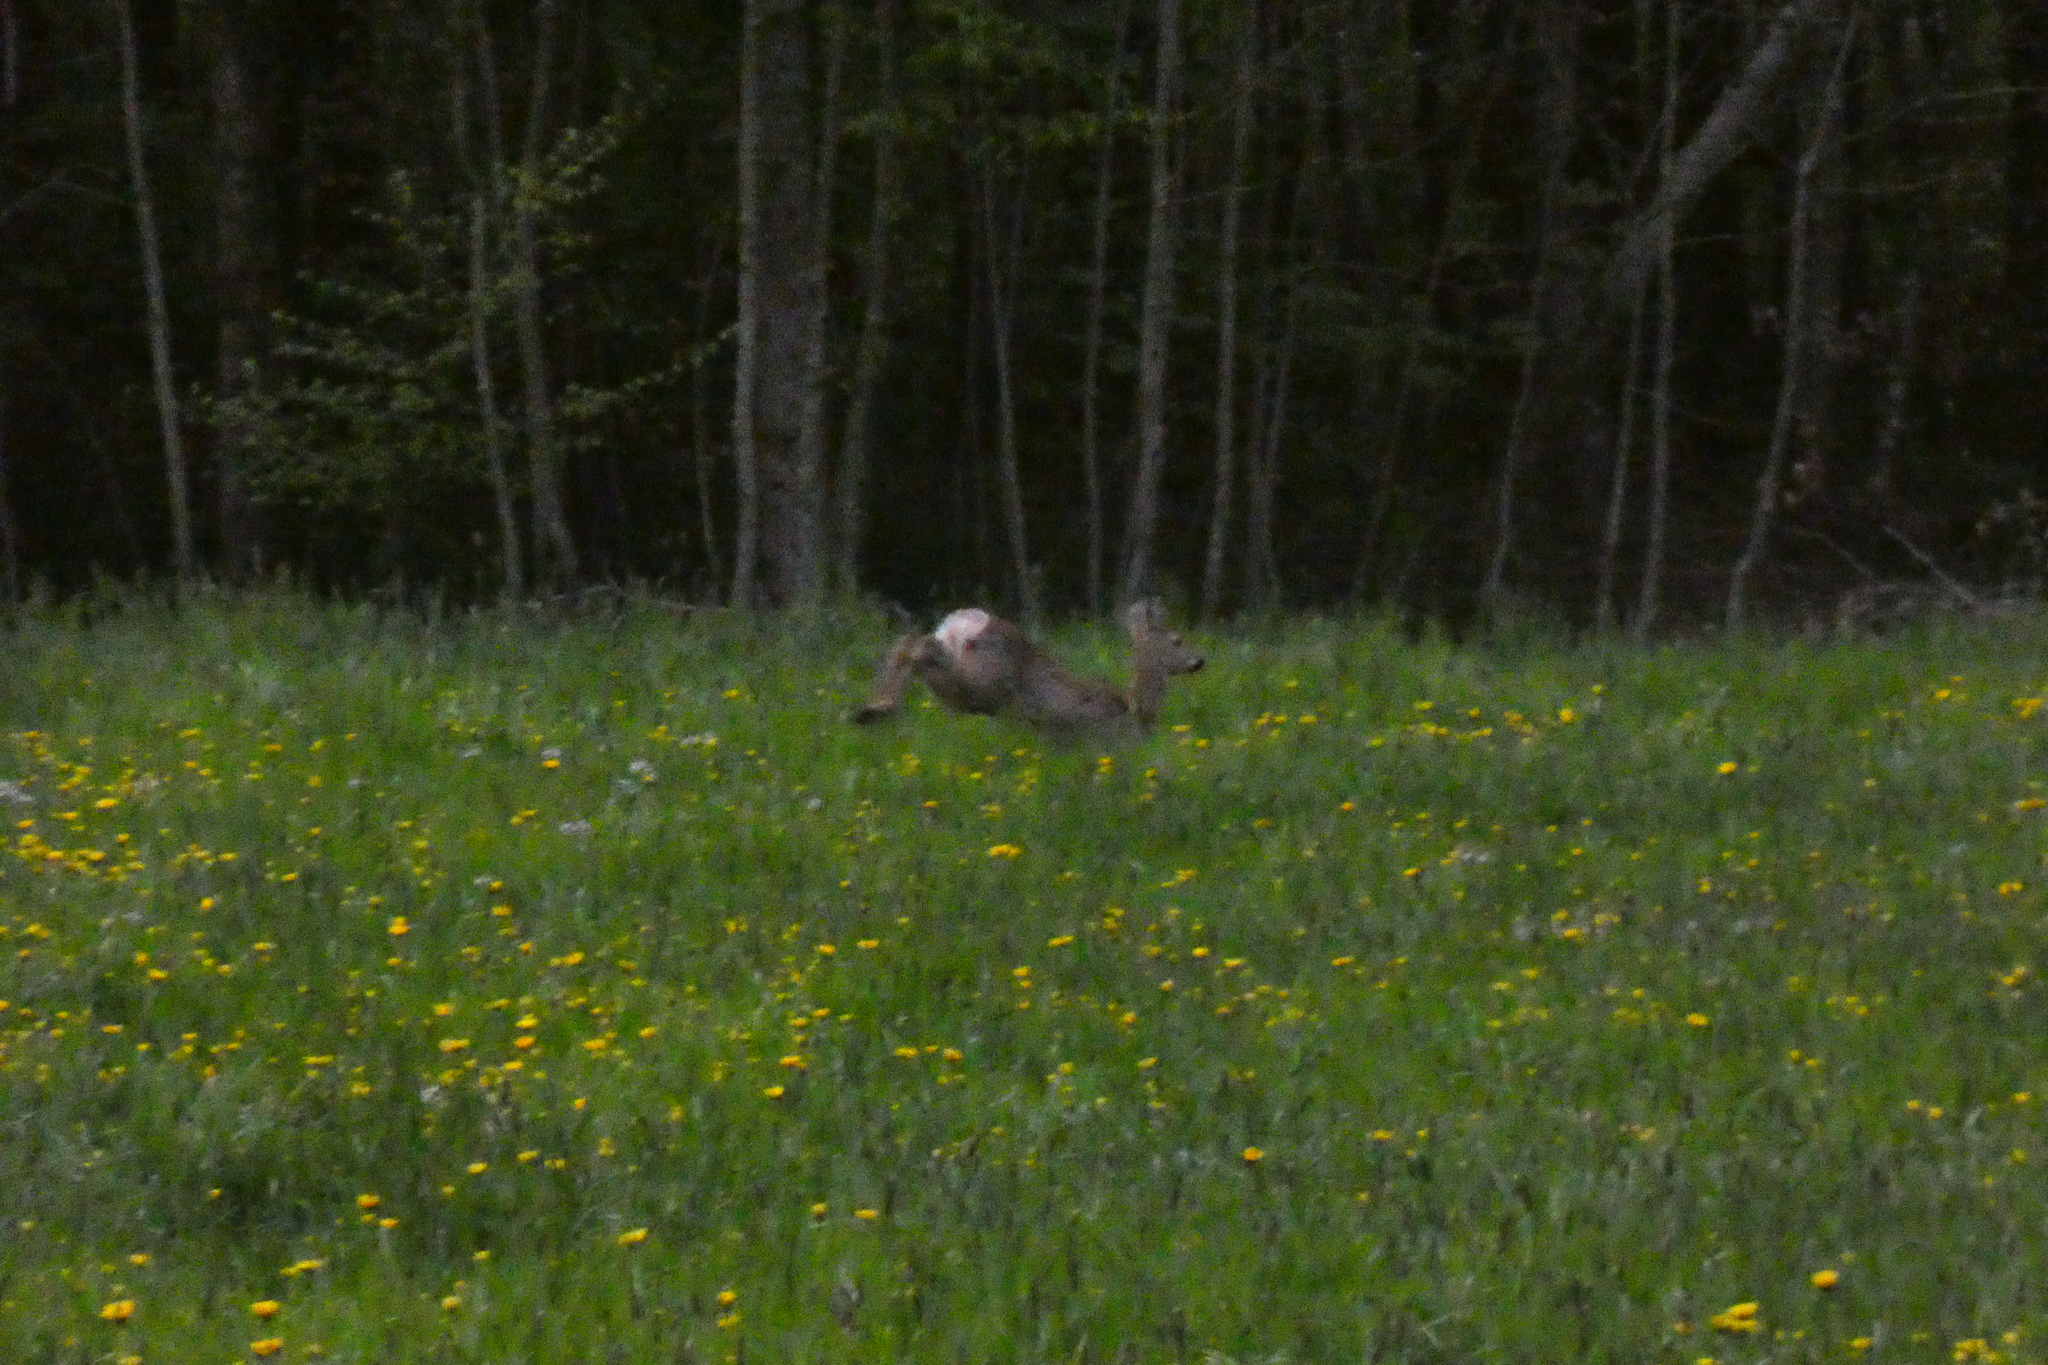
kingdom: Animalia
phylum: Chordata
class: Mammalia
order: Artiodactyla
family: Cervidae
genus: Capreolus
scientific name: Capreolus capreolus
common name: Western roe deer
